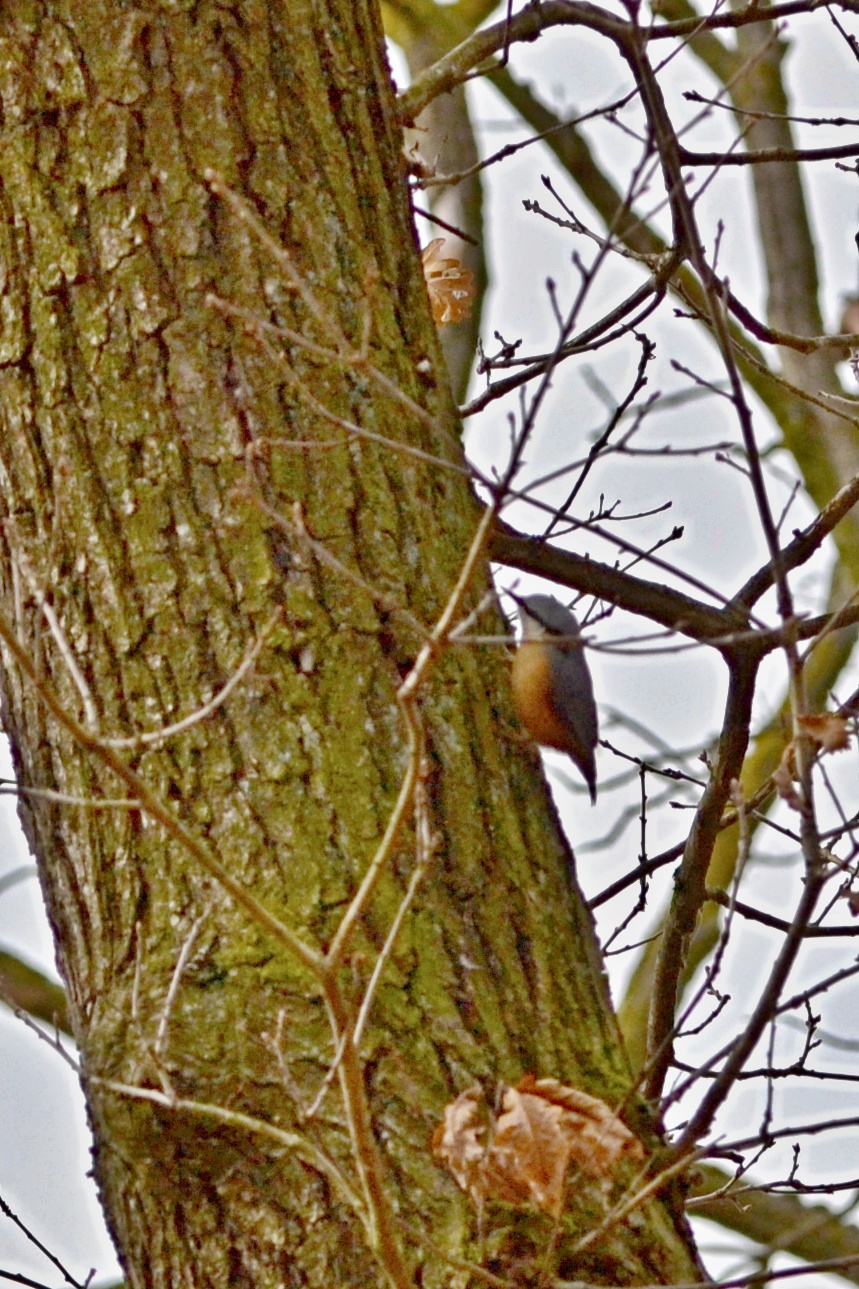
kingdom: Animalia
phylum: Chordata
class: Aves
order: Passeriformes
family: Sittidae
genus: Sitta
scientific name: Sitta europaea
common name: Eurasian nuthatch
